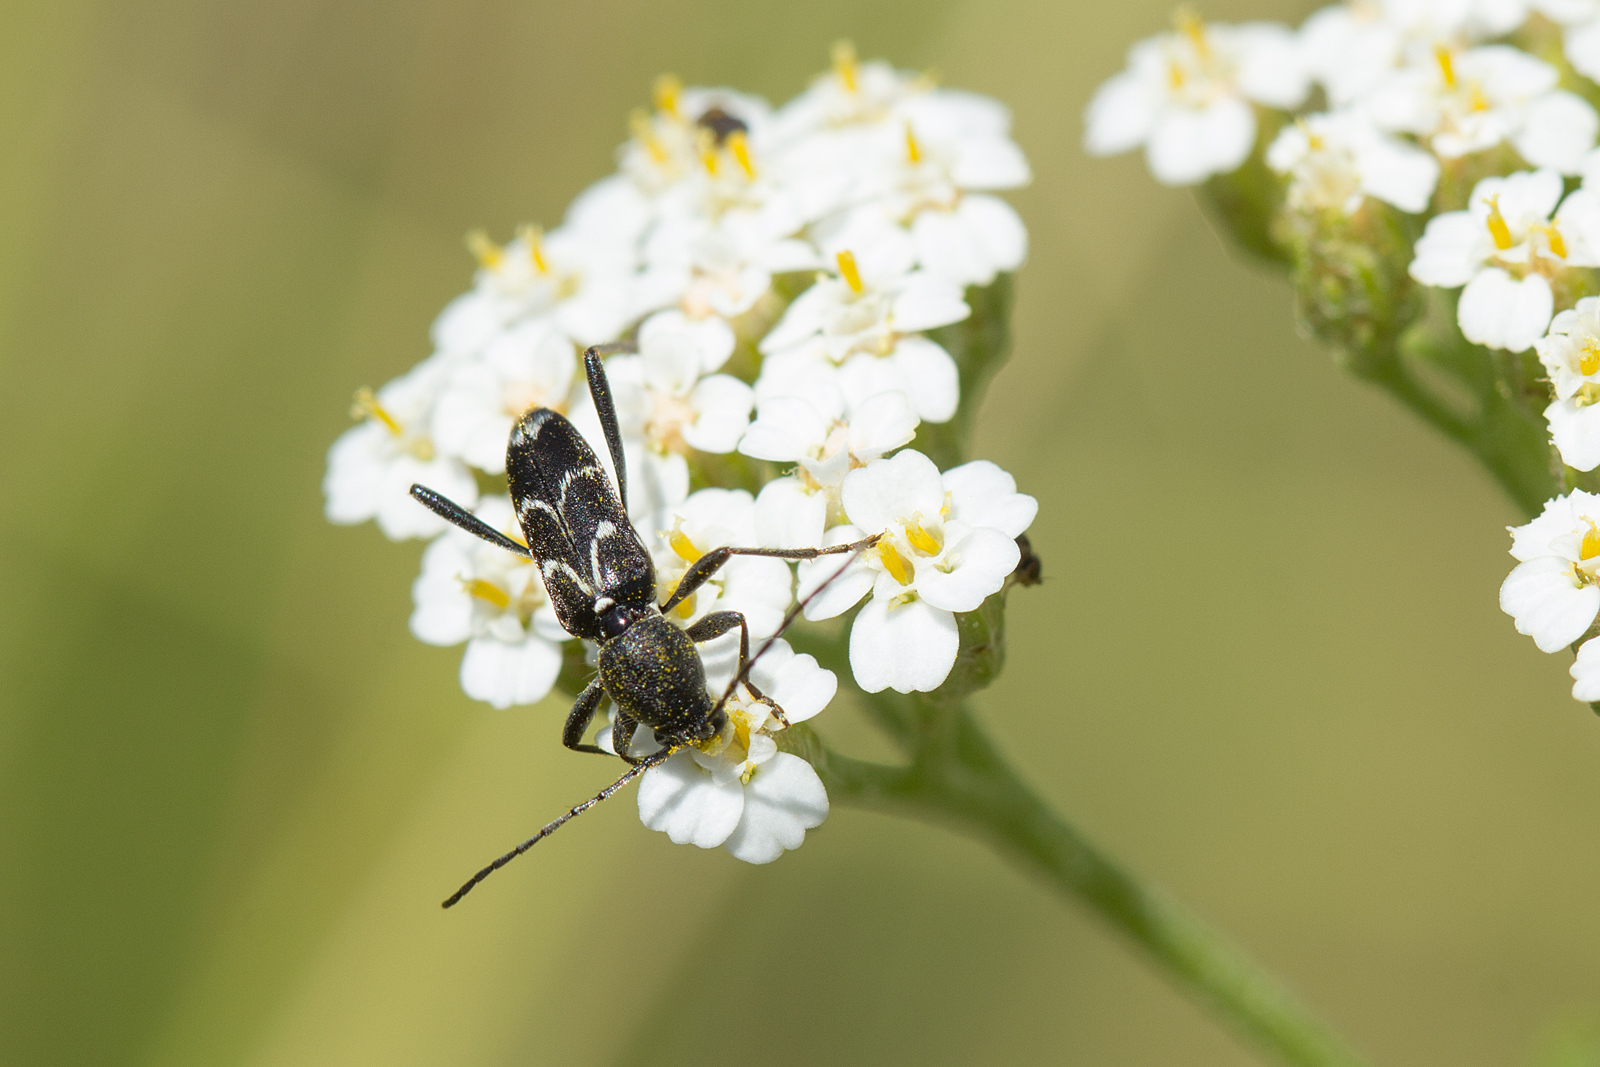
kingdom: Animalia
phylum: Arthropoda
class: Insecta
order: Coleoptera
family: Cerambycidae
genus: Chlorophorus
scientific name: Chlorophorus sartor
